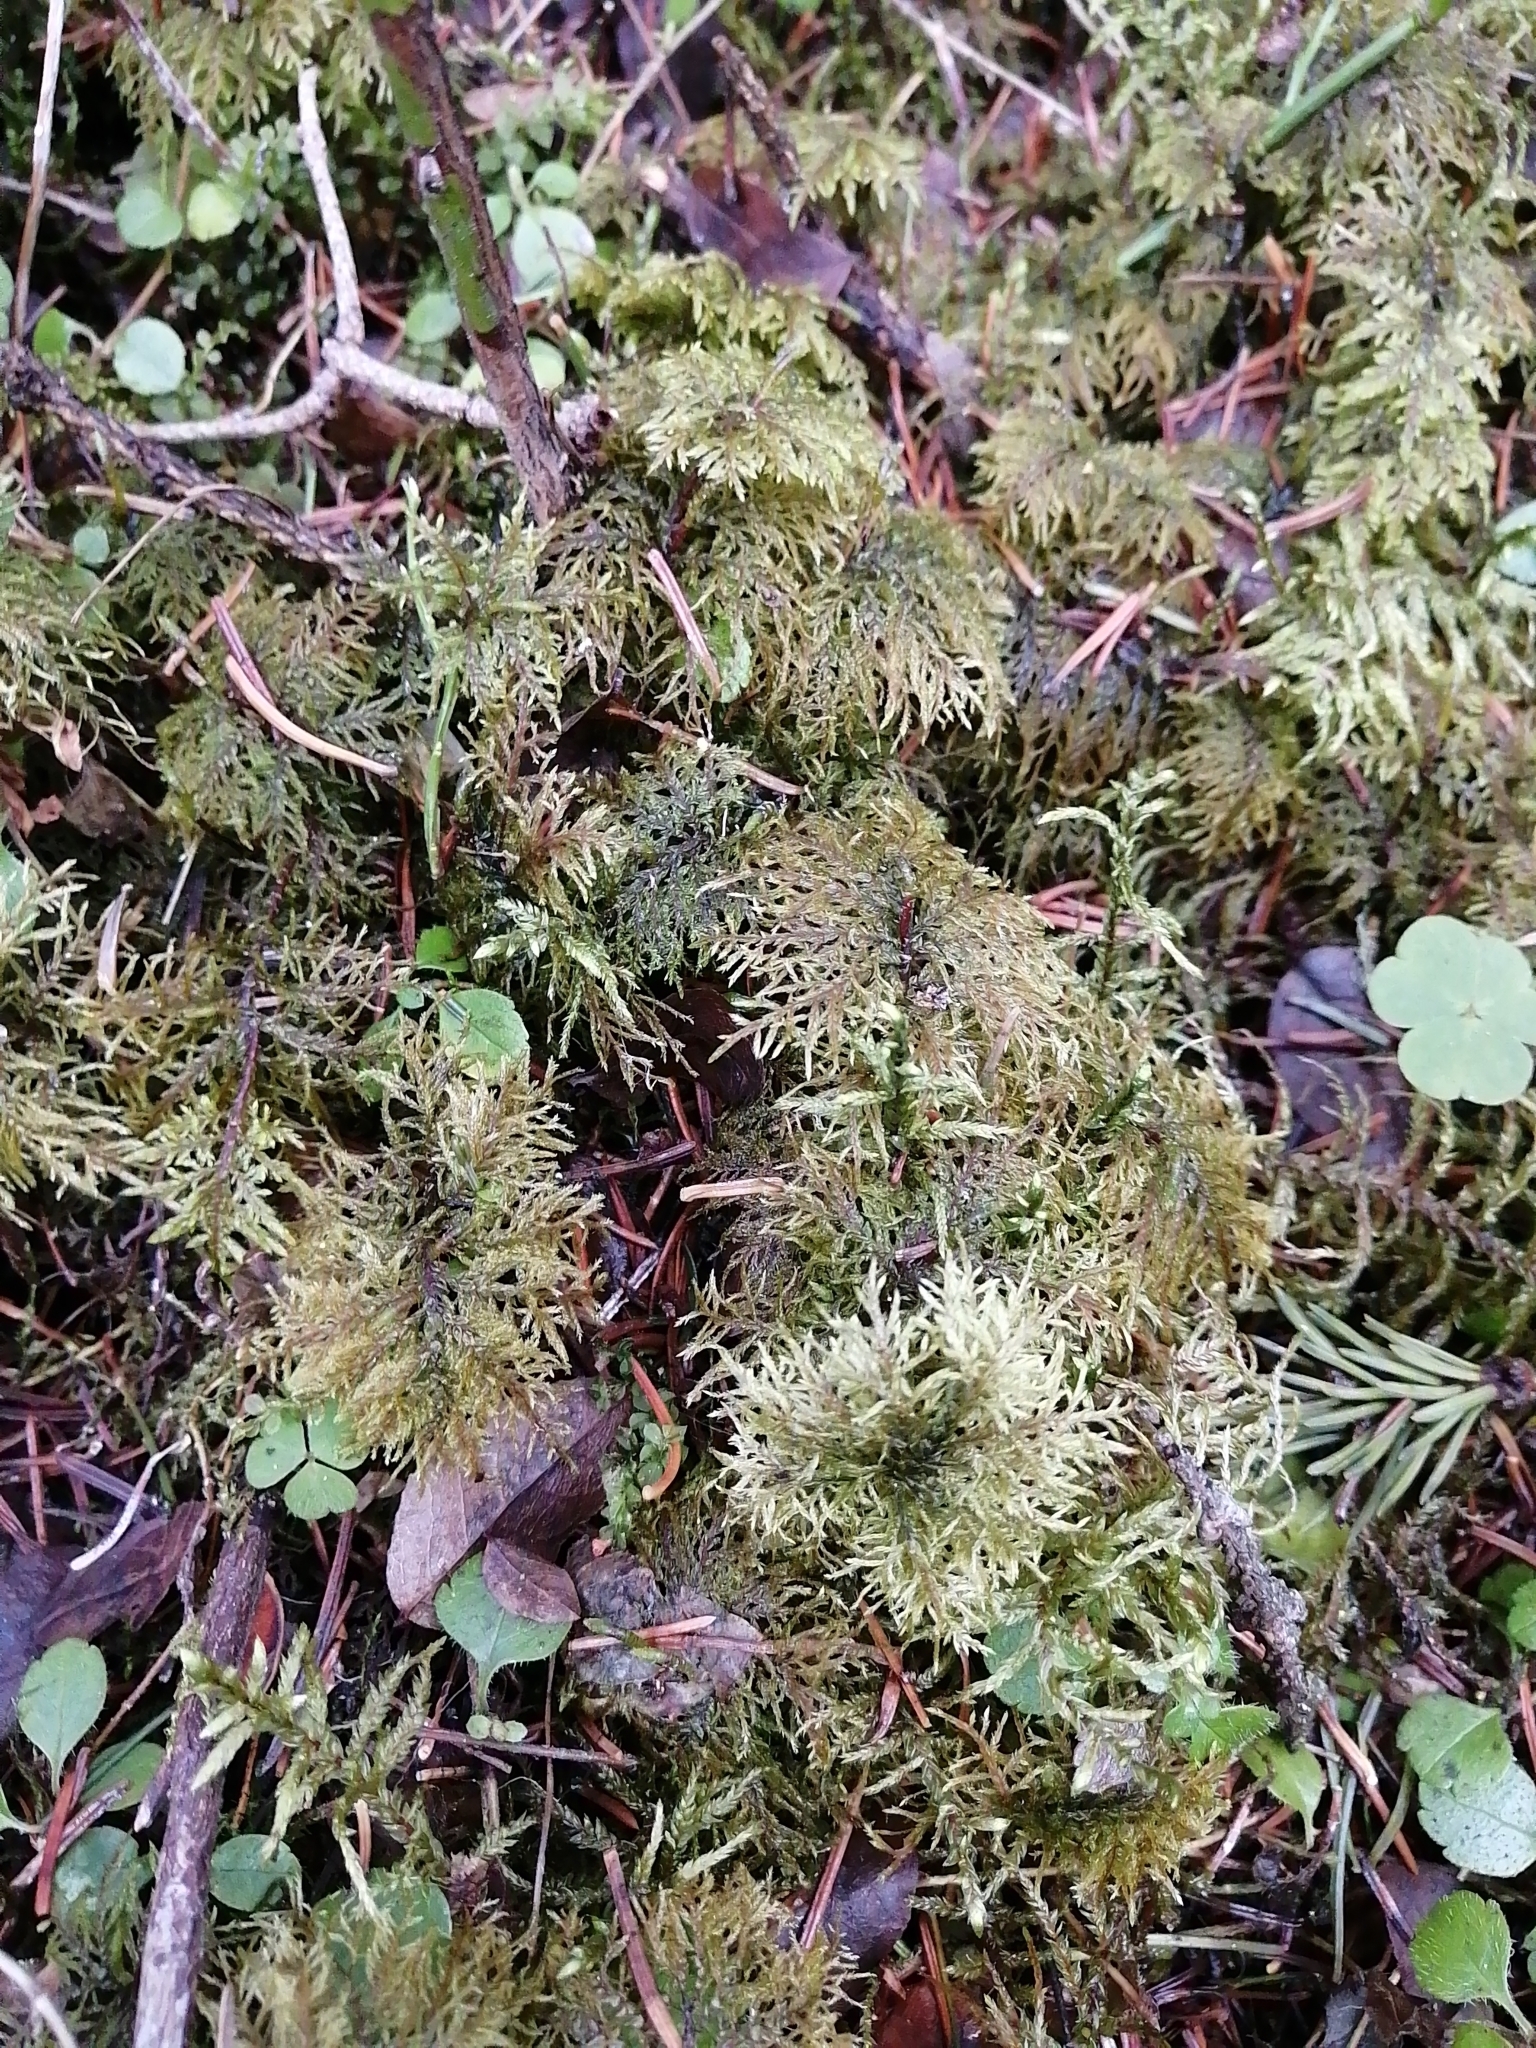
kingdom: Plantae
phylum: Bryophyta
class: Bryopsida
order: Hypnales
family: Hylocomiaceae
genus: Hylocomium
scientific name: Hylocomium splendens
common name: Stairstep moss
